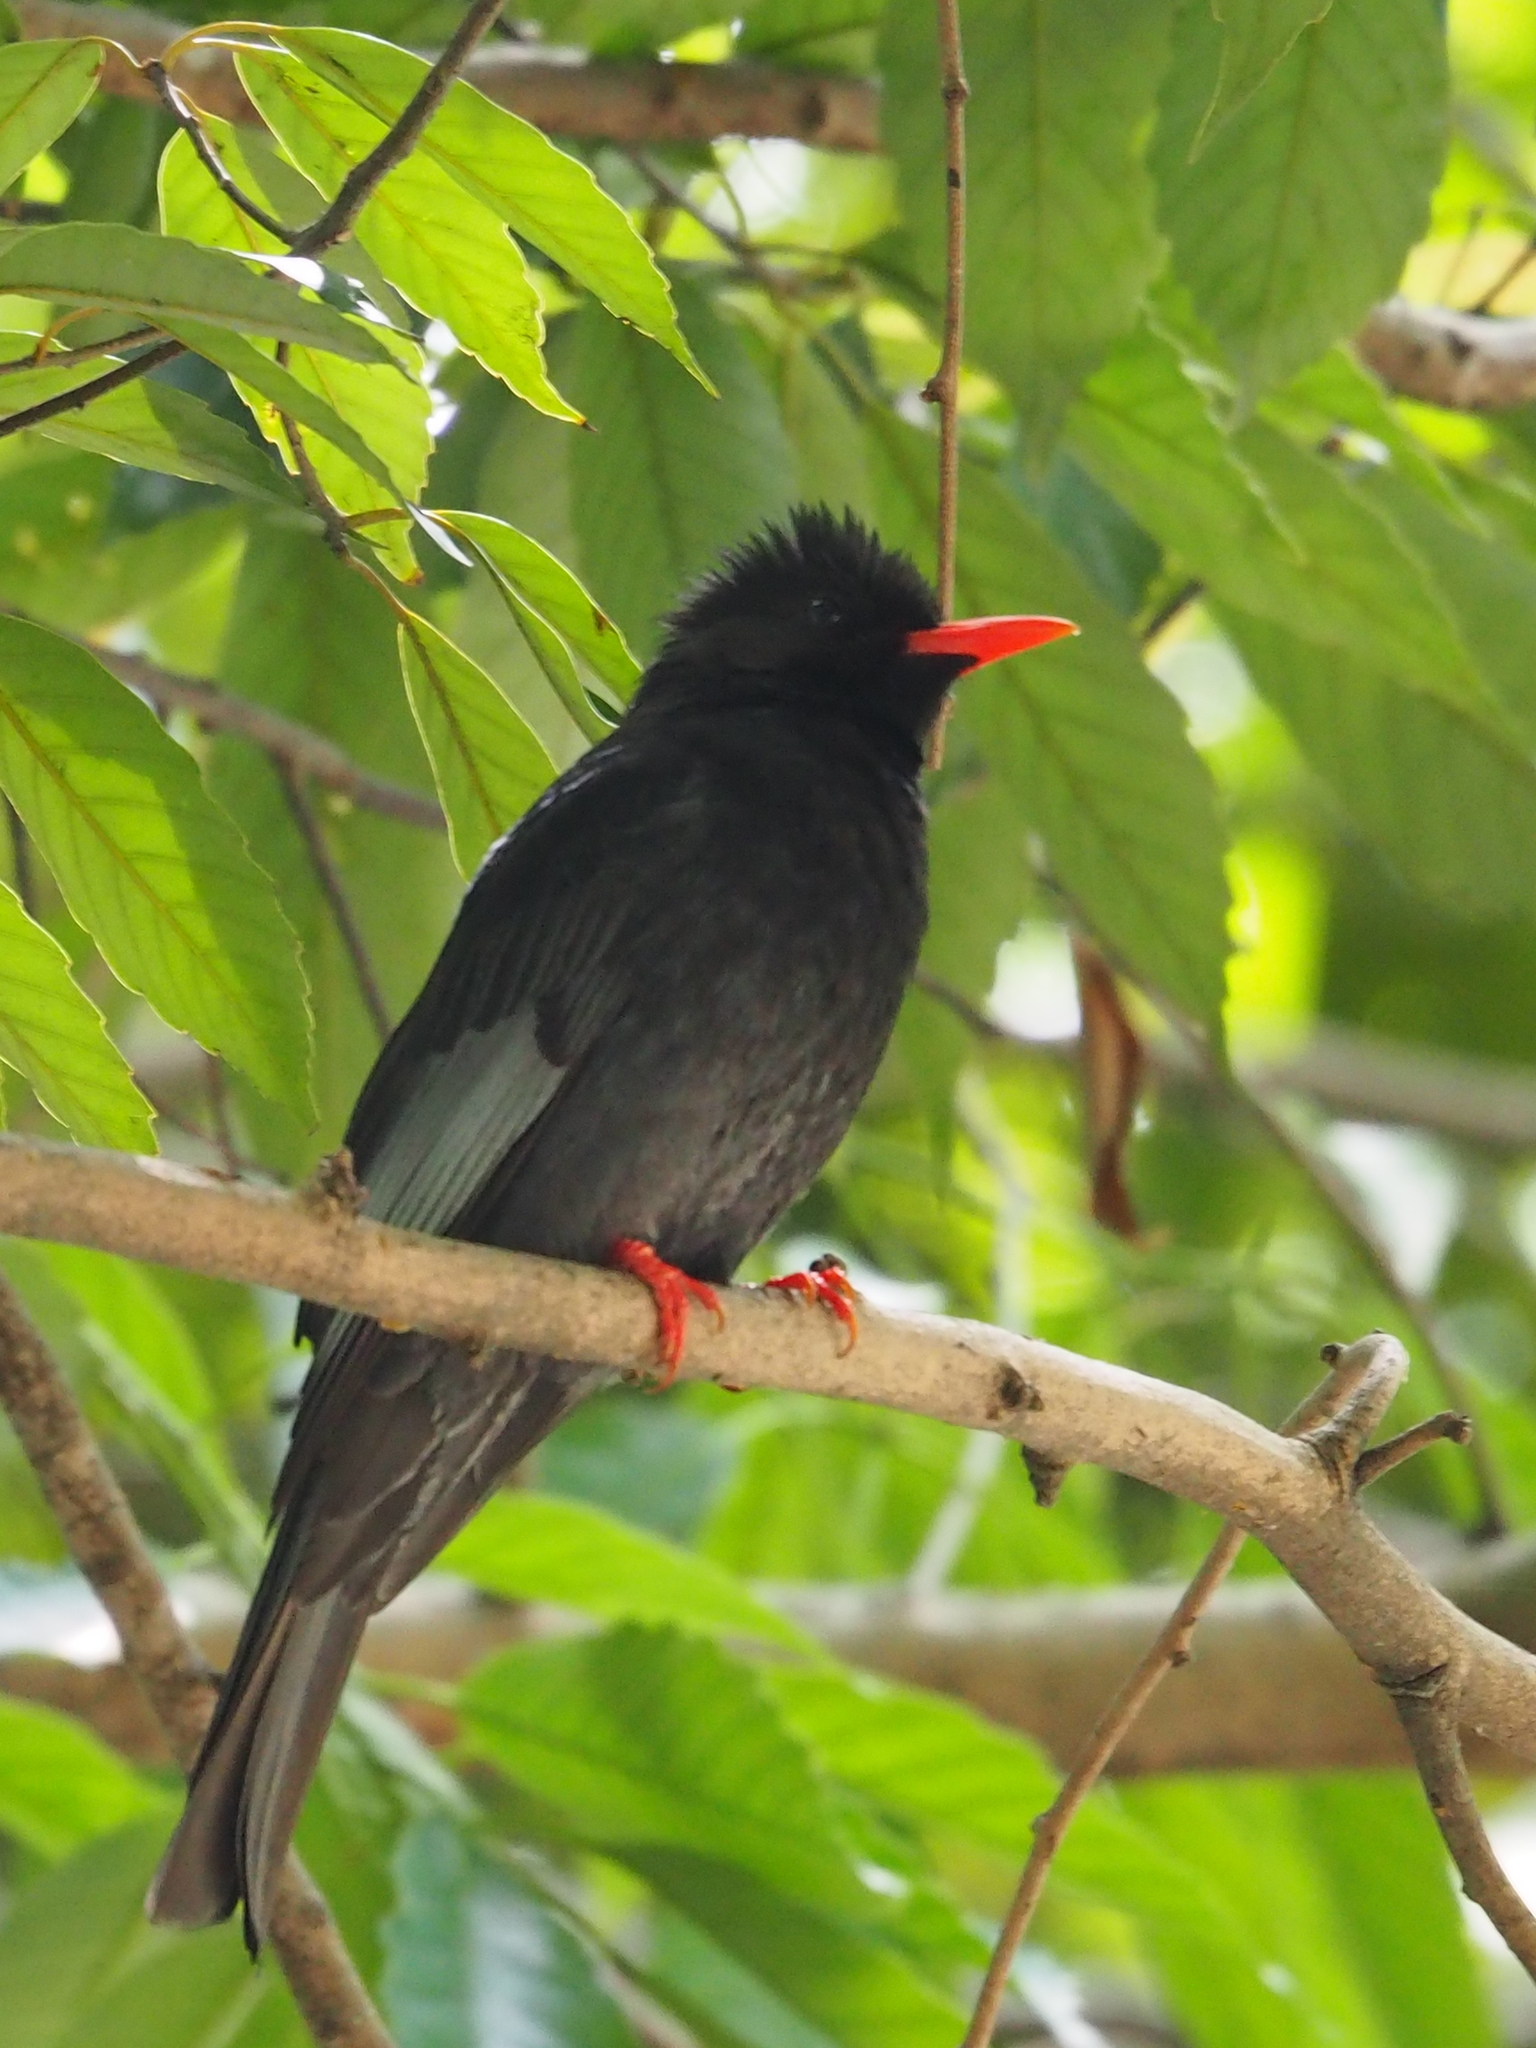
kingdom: Animalia
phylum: Chordata
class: Aves
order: Passeriformes
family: Pycnonotidae
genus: Hypsipetes
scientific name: Hypsipetes leucocephalus
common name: Black bulbul
